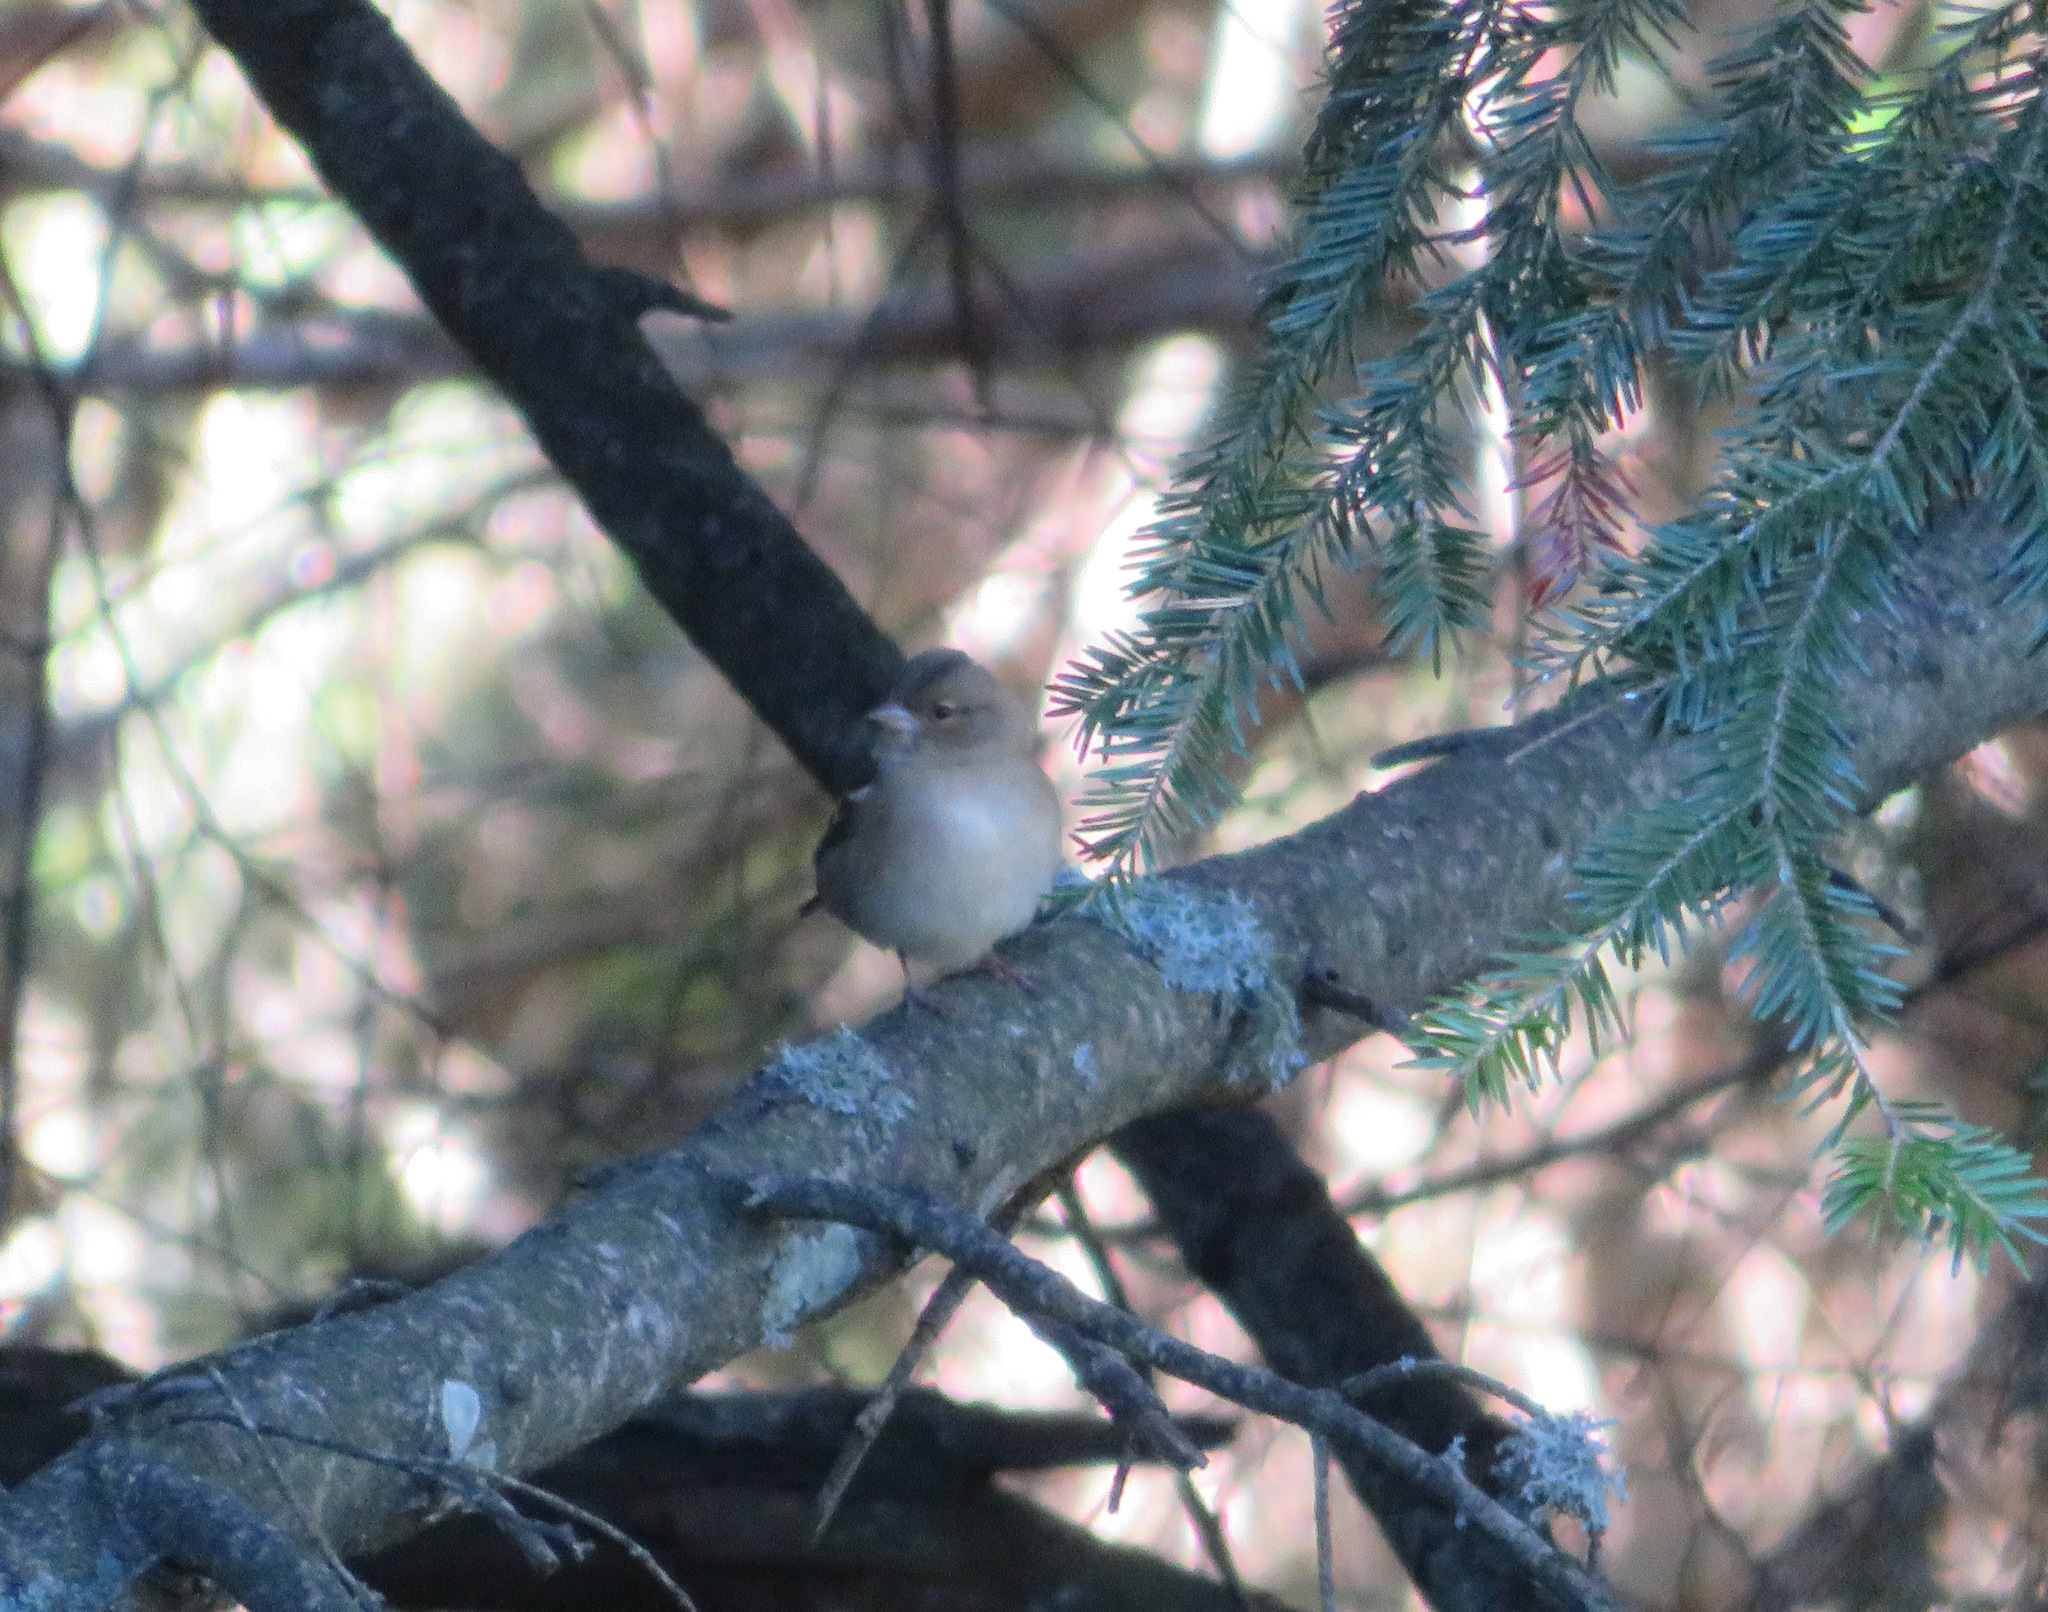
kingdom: Animalia
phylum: Chordata
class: Aves
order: Passeriformes
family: Fringillidae
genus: Fringilla
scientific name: Fringilla coelebs
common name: Common chaffinch
